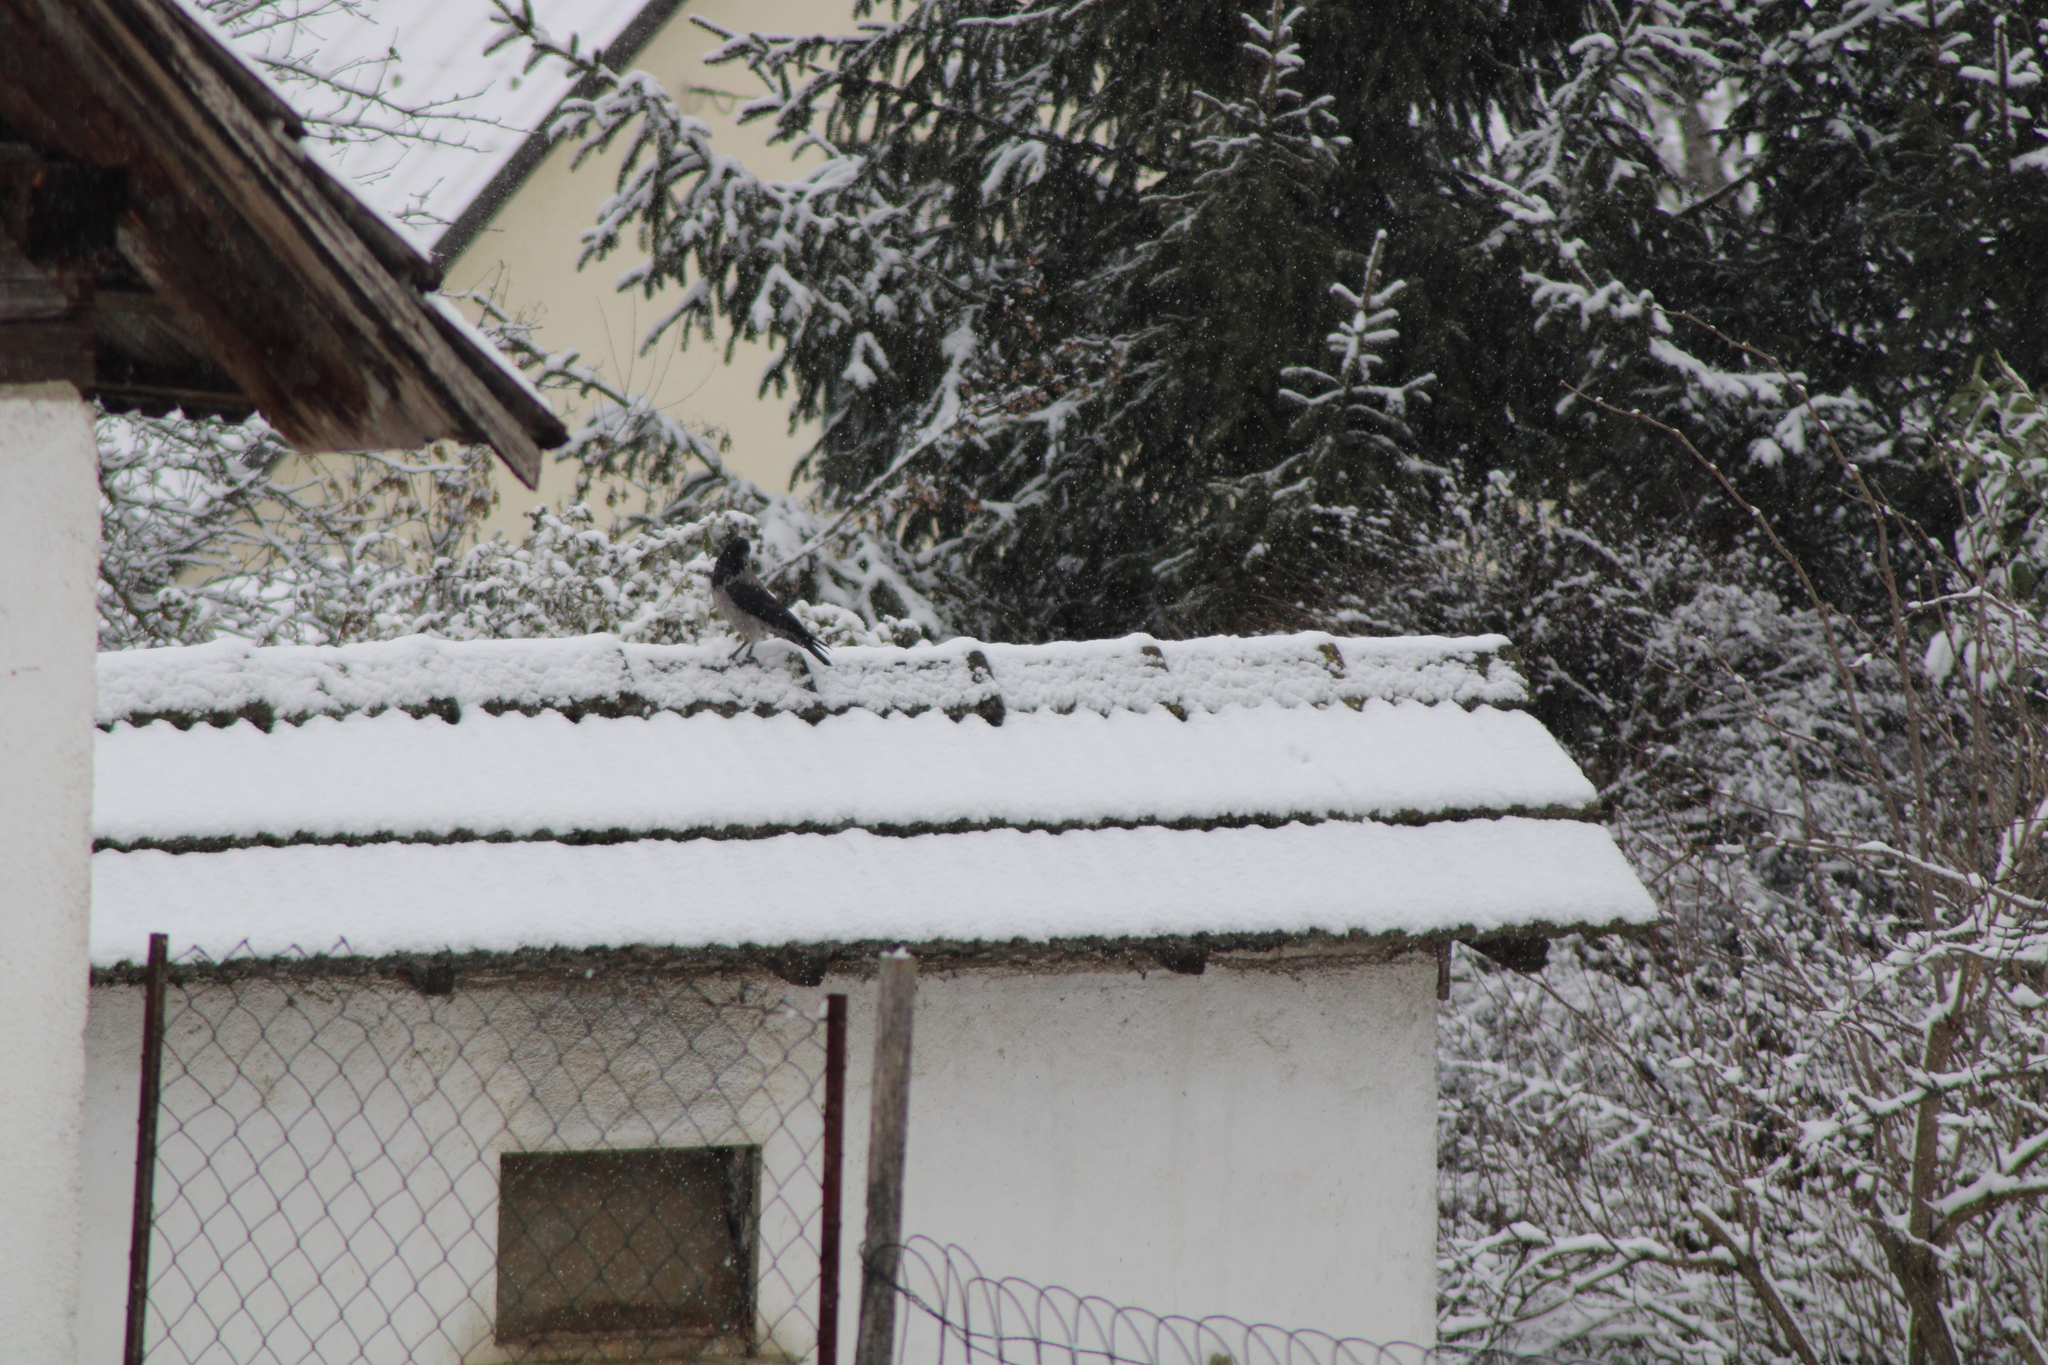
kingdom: Animalia
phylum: Chordata
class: Aves
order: Passeriformes
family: Corvidae
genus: Corvus
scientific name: Corvus cornix
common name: Hooded crow
